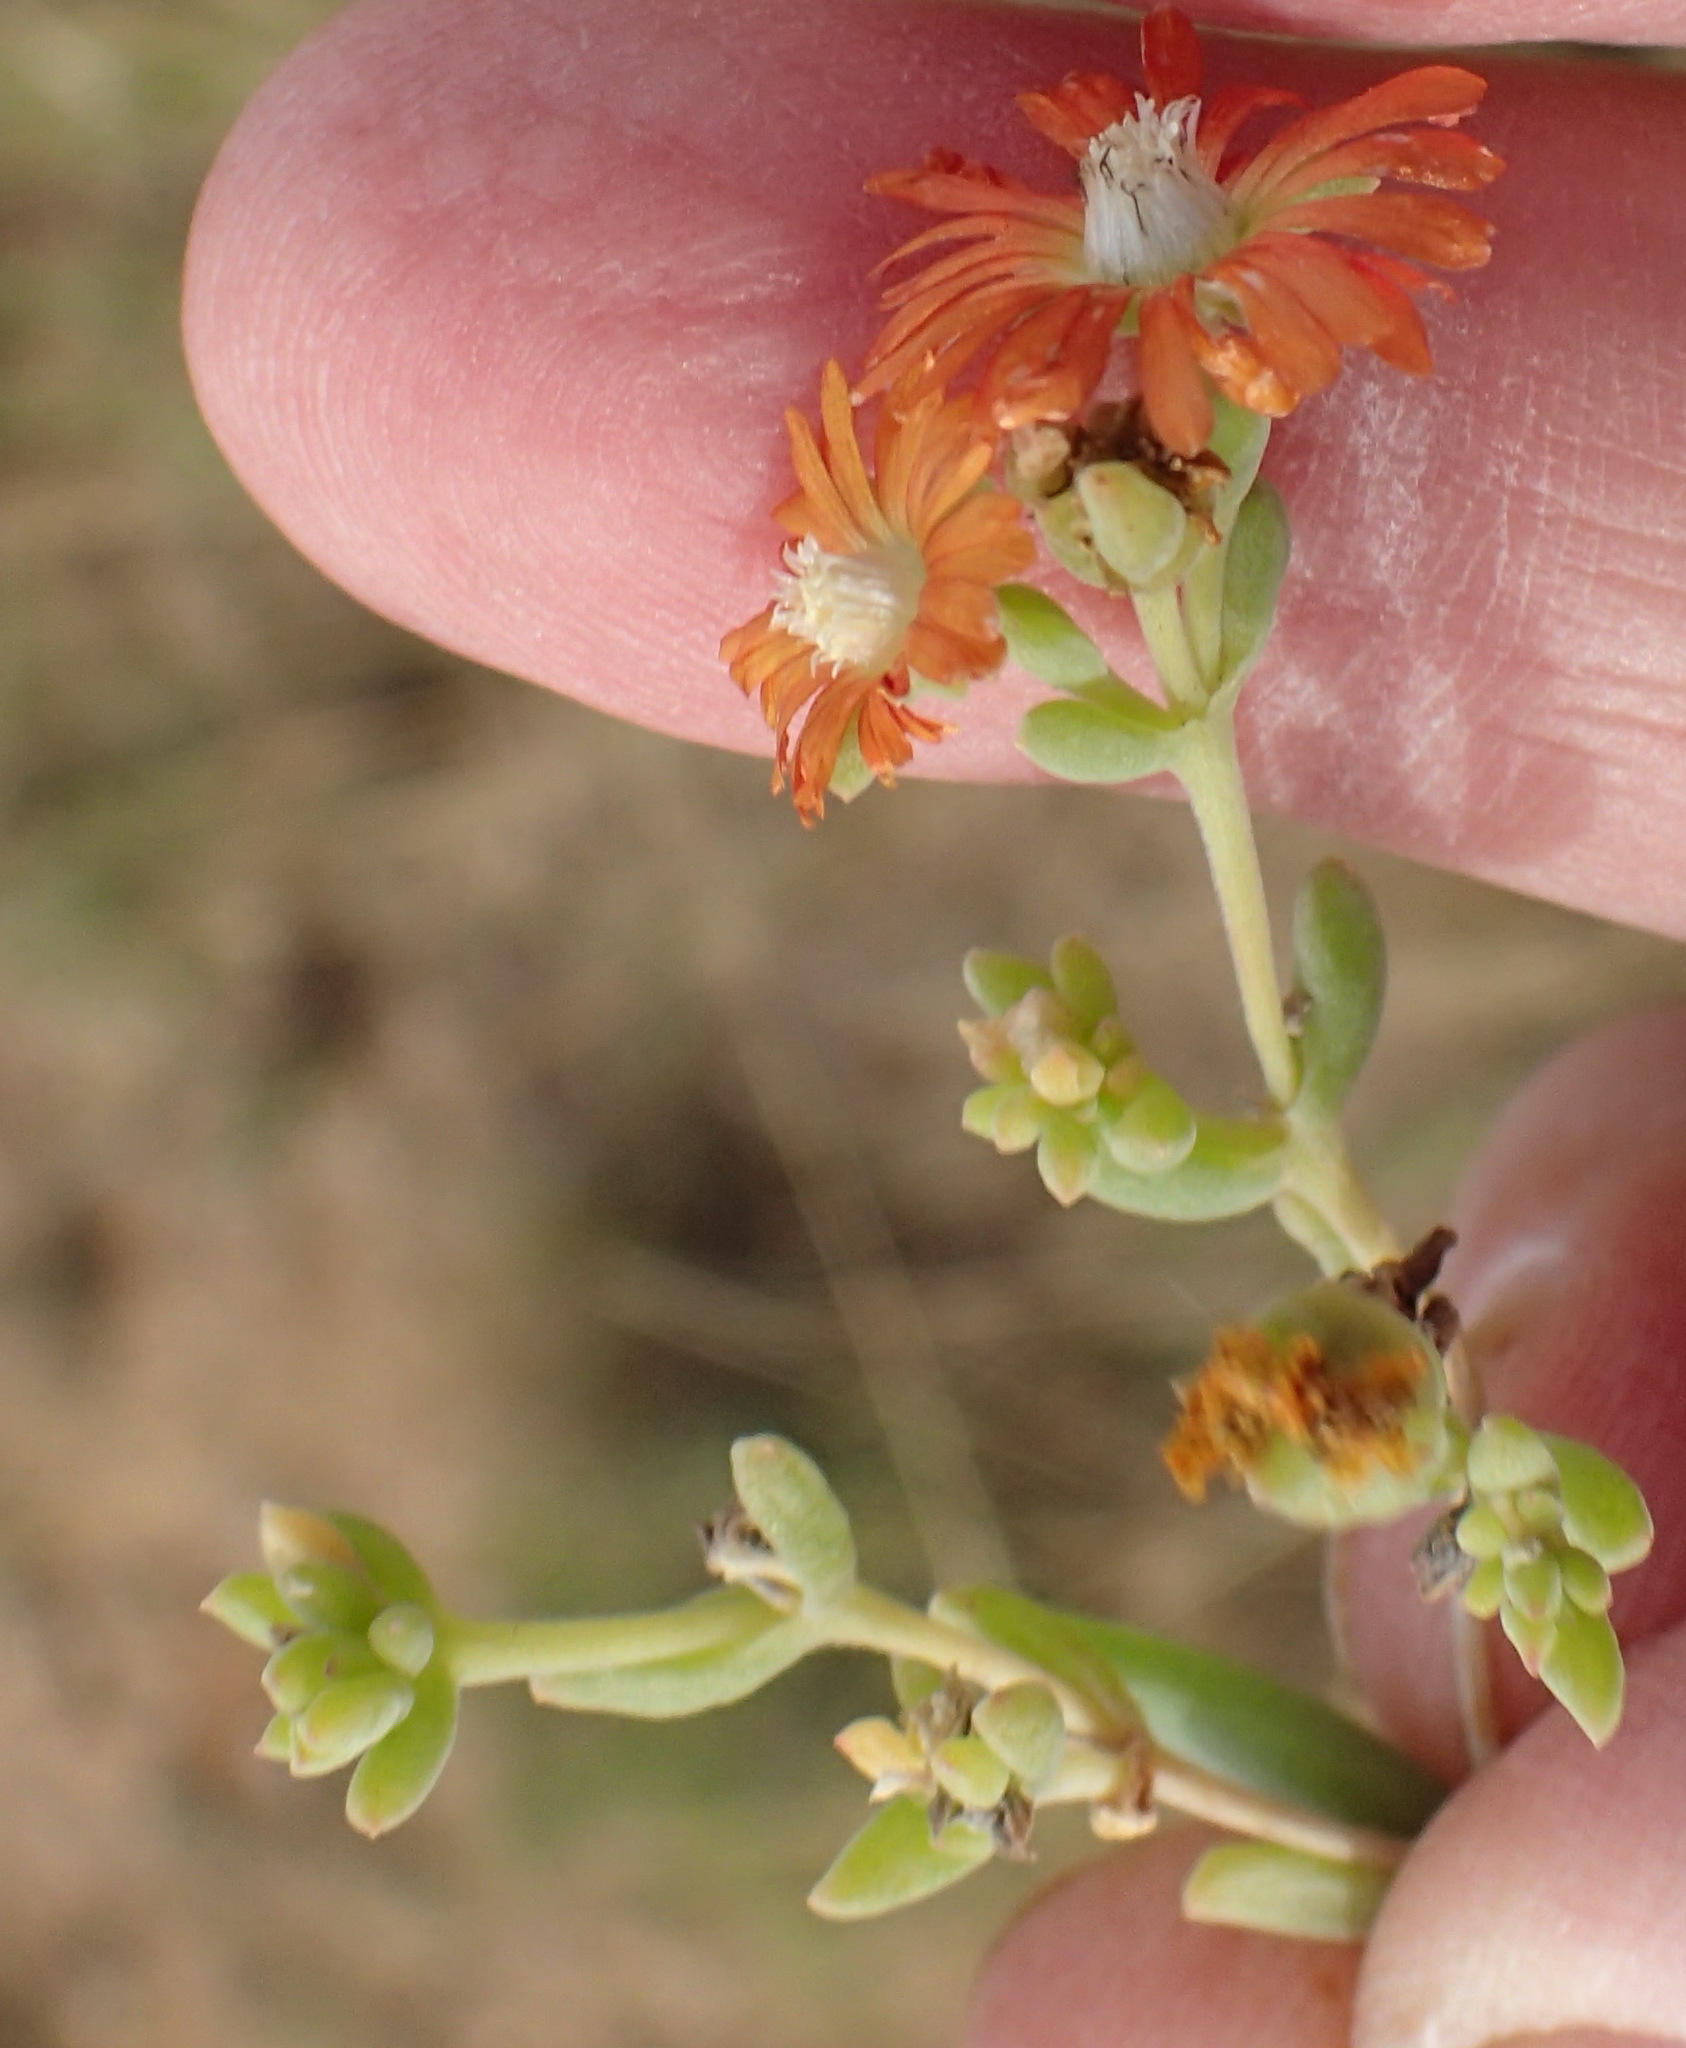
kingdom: Plantae
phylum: Tracheophyta
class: Magnoliopsida
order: Caryophyllales
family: Aizoaceae
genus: Delosperma
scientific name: Delosperma testaceum
